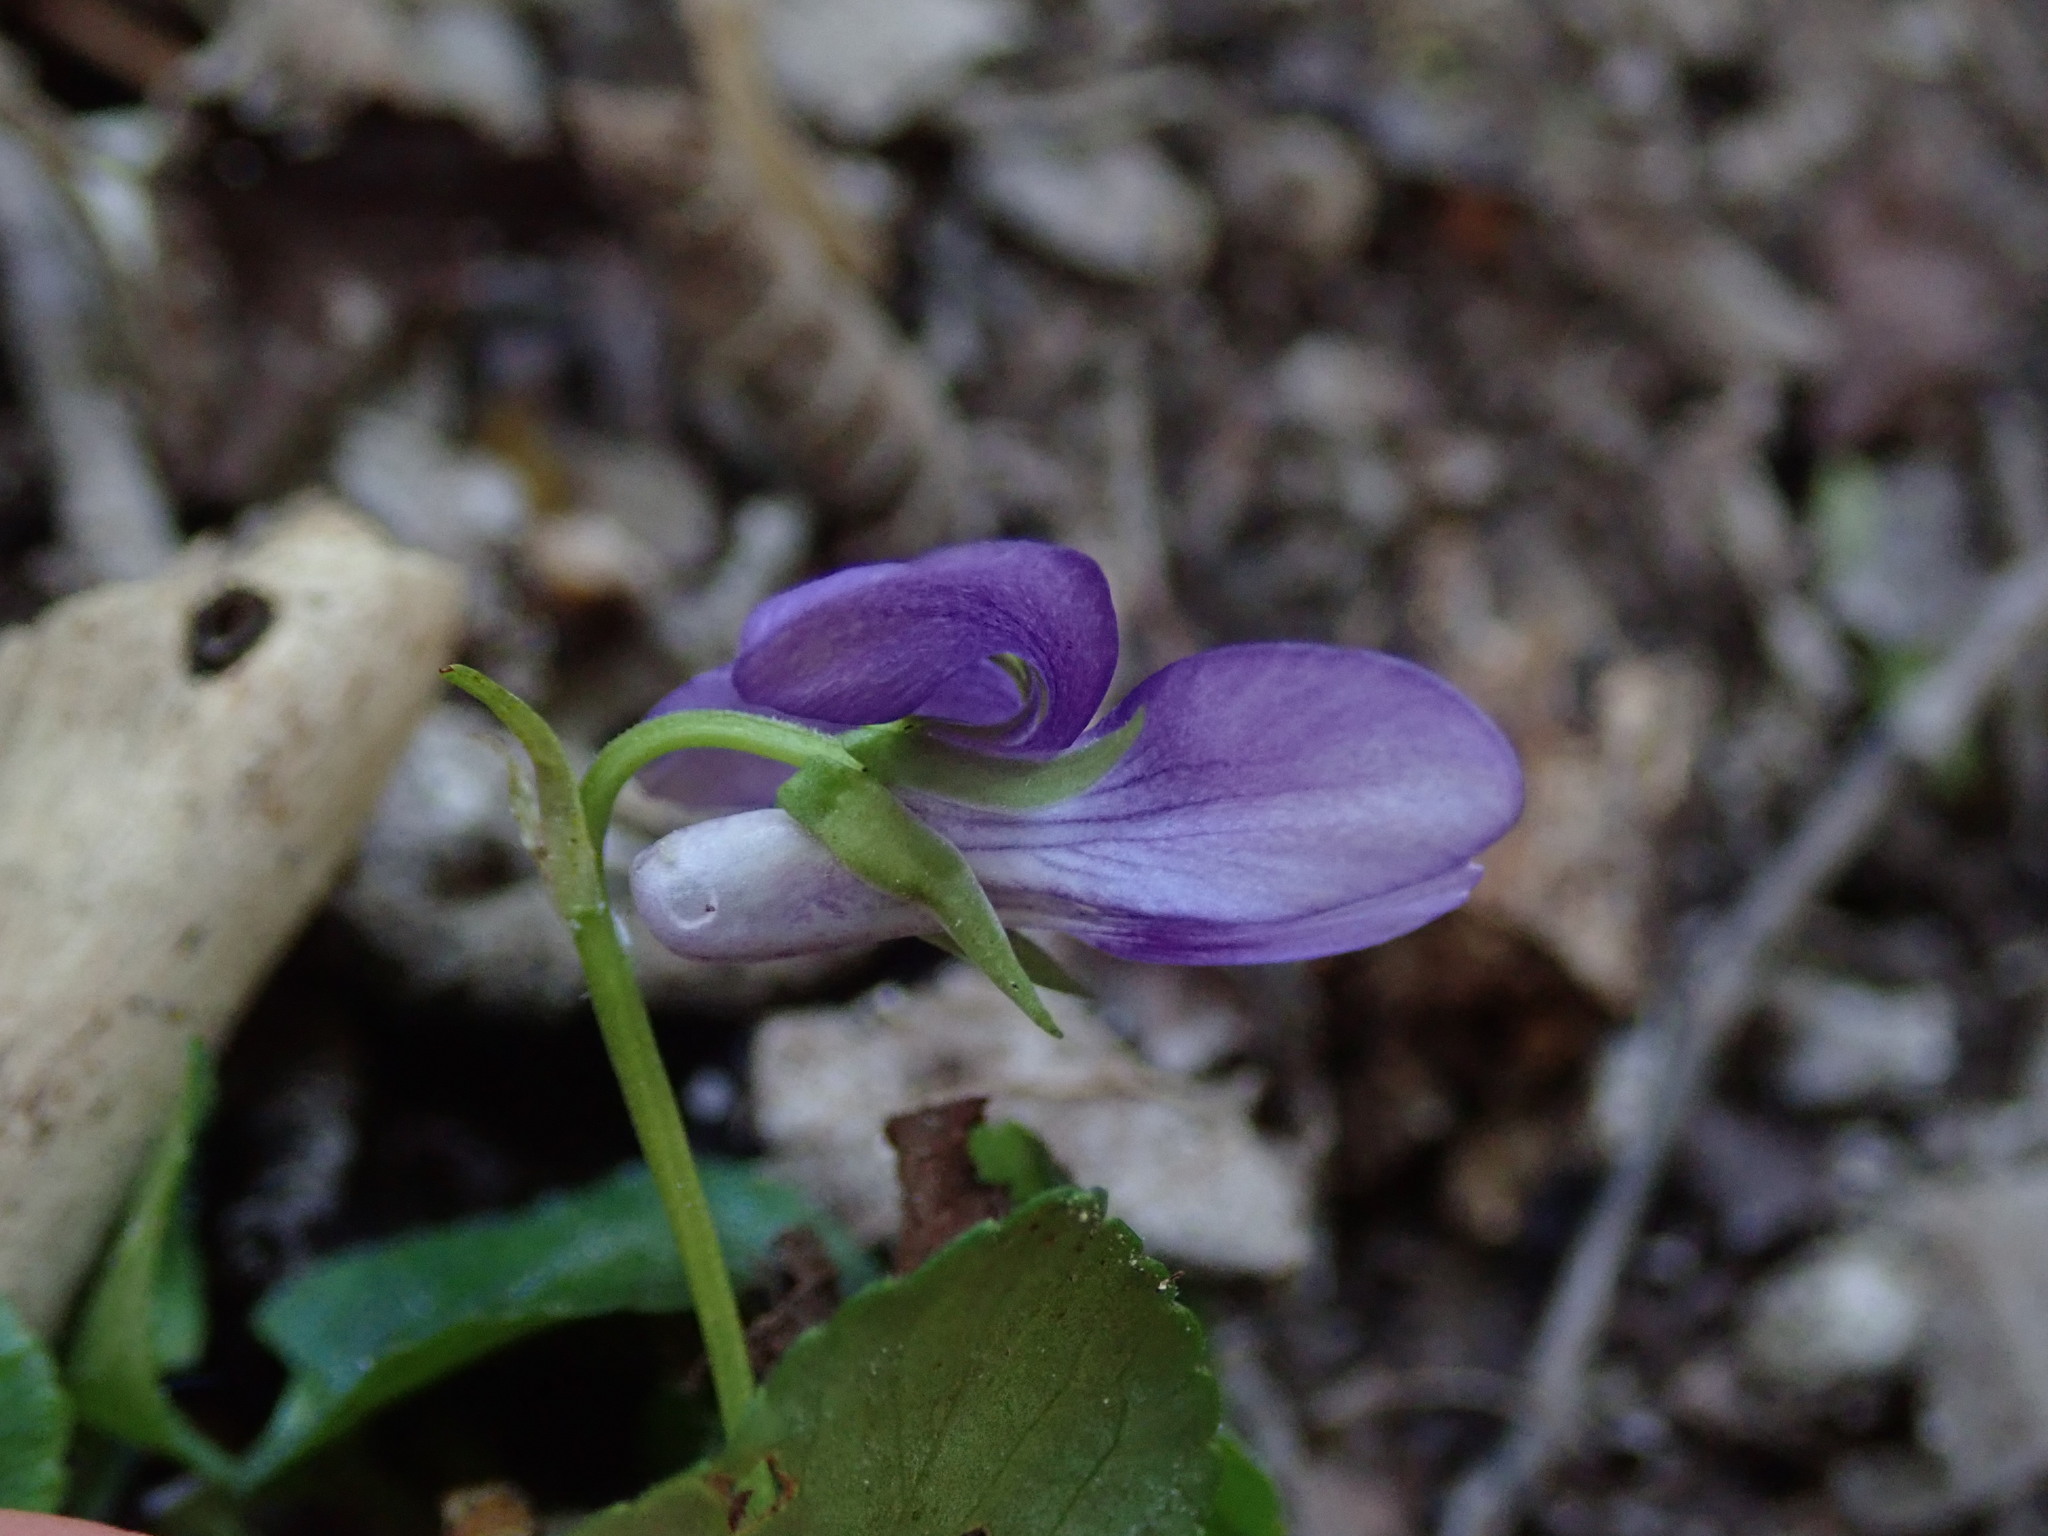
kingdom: Plantae
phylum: Tracheophyta
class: Magnoliopsida
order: Malpighiales
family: Violaceae
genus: Viola
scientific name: Viola riviniana
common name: Common dog-violet
